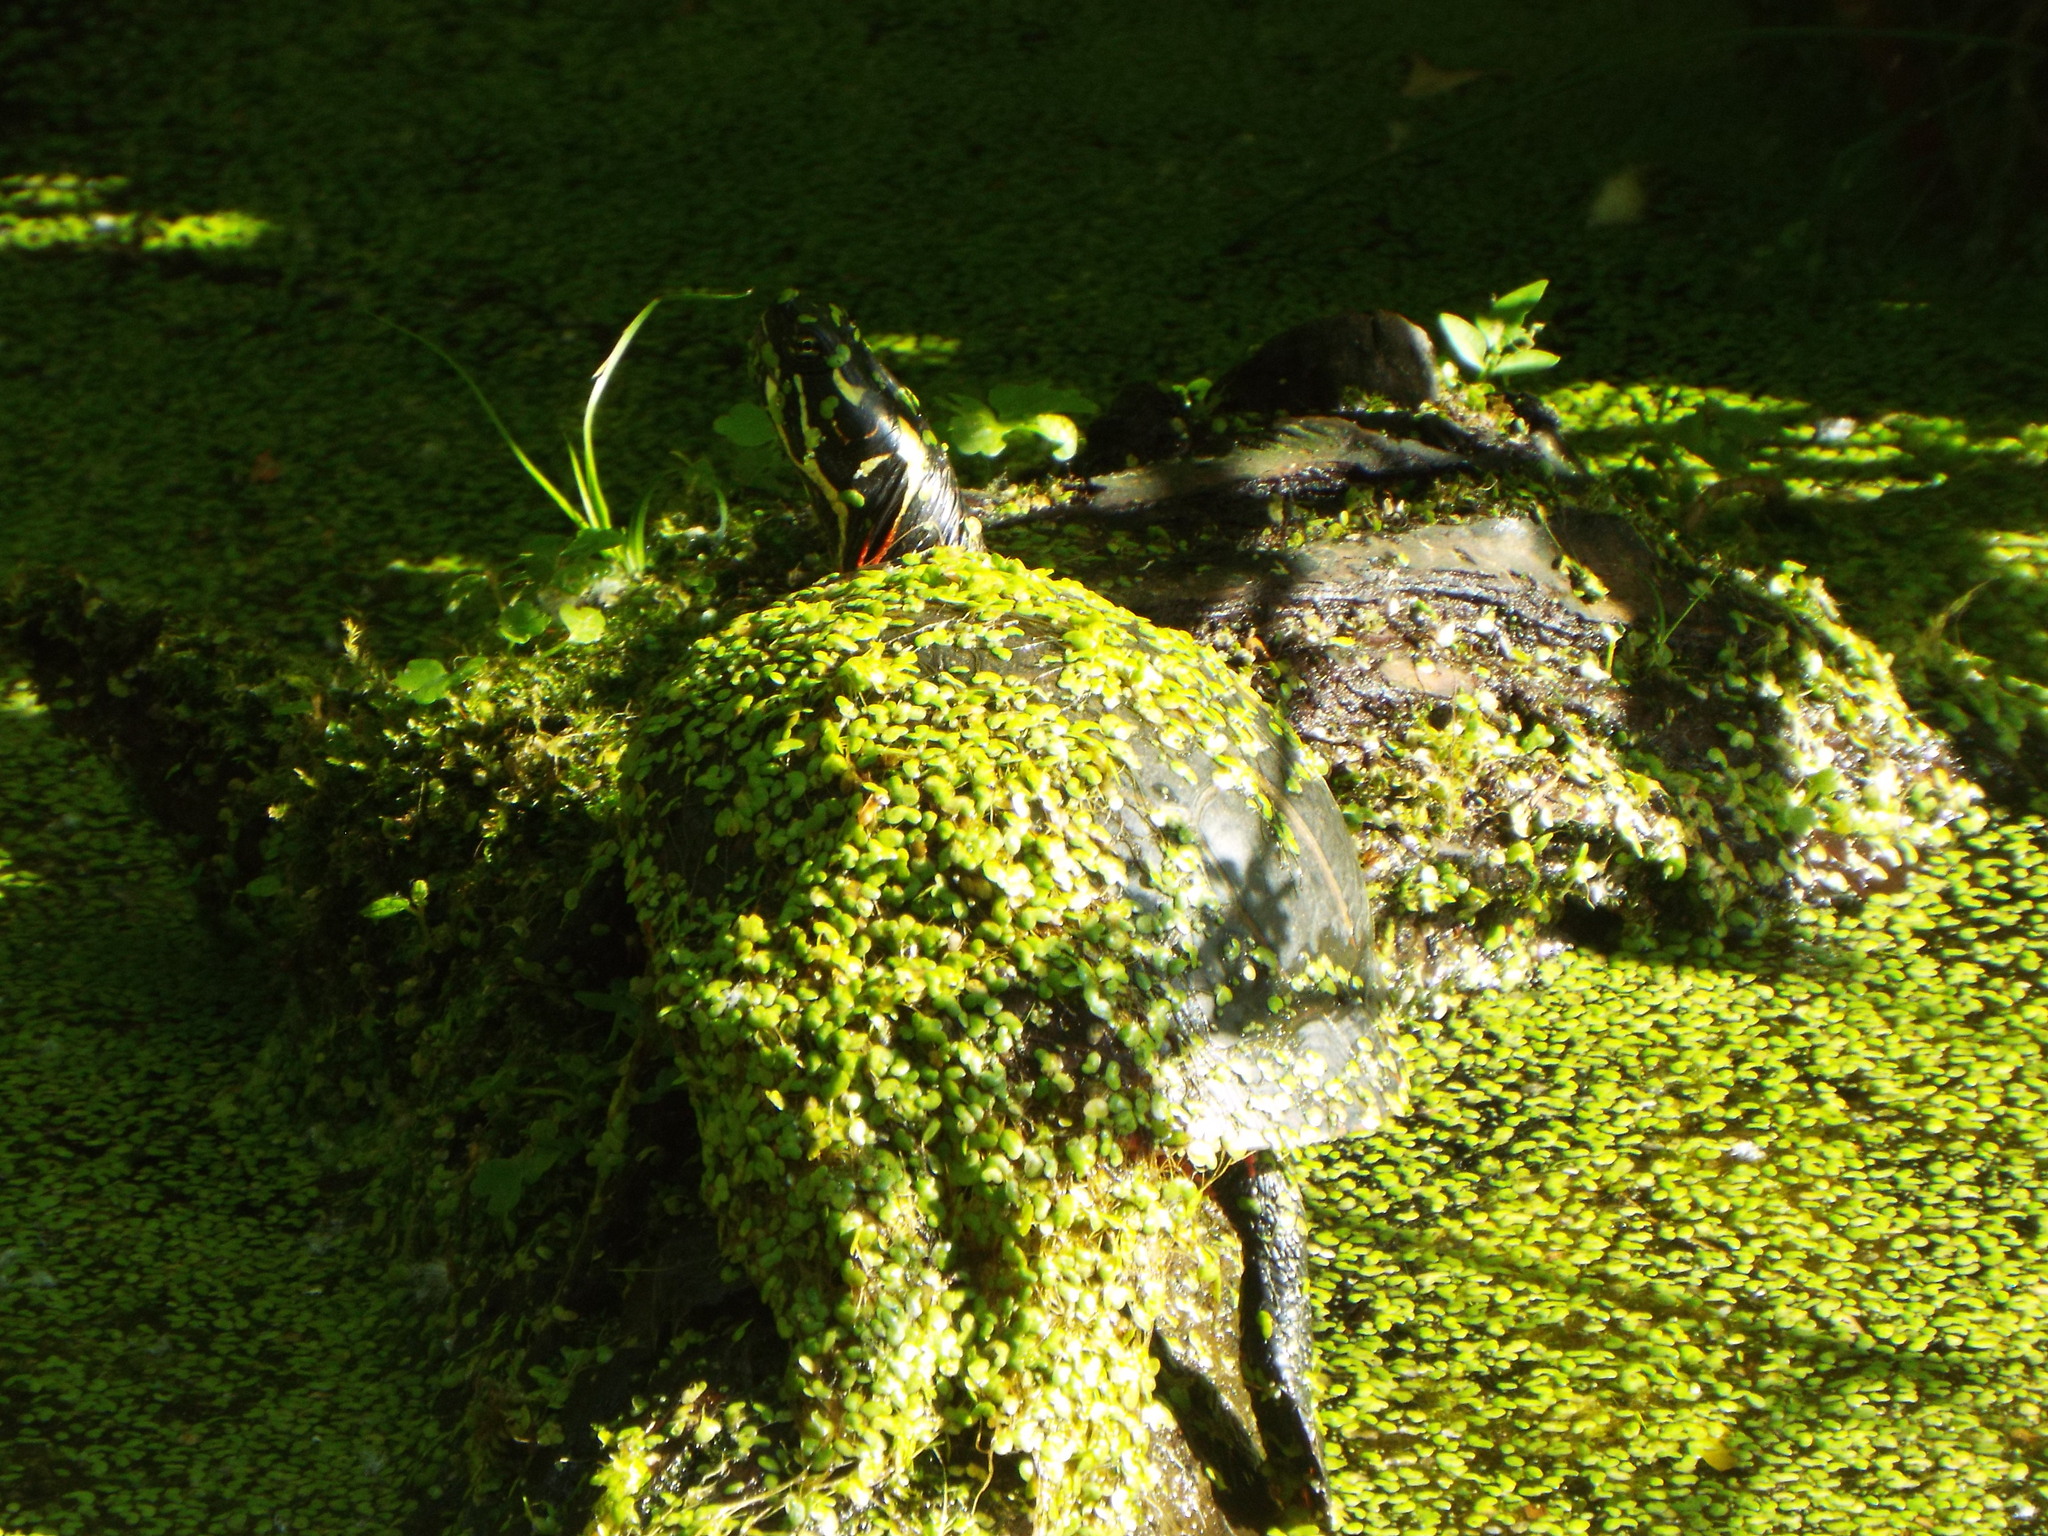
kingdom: Animalia
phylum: Chordata
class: Testudines
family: Emydidae
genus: Chrysemys
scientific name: Chrysemys picta
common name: Painted turtle
